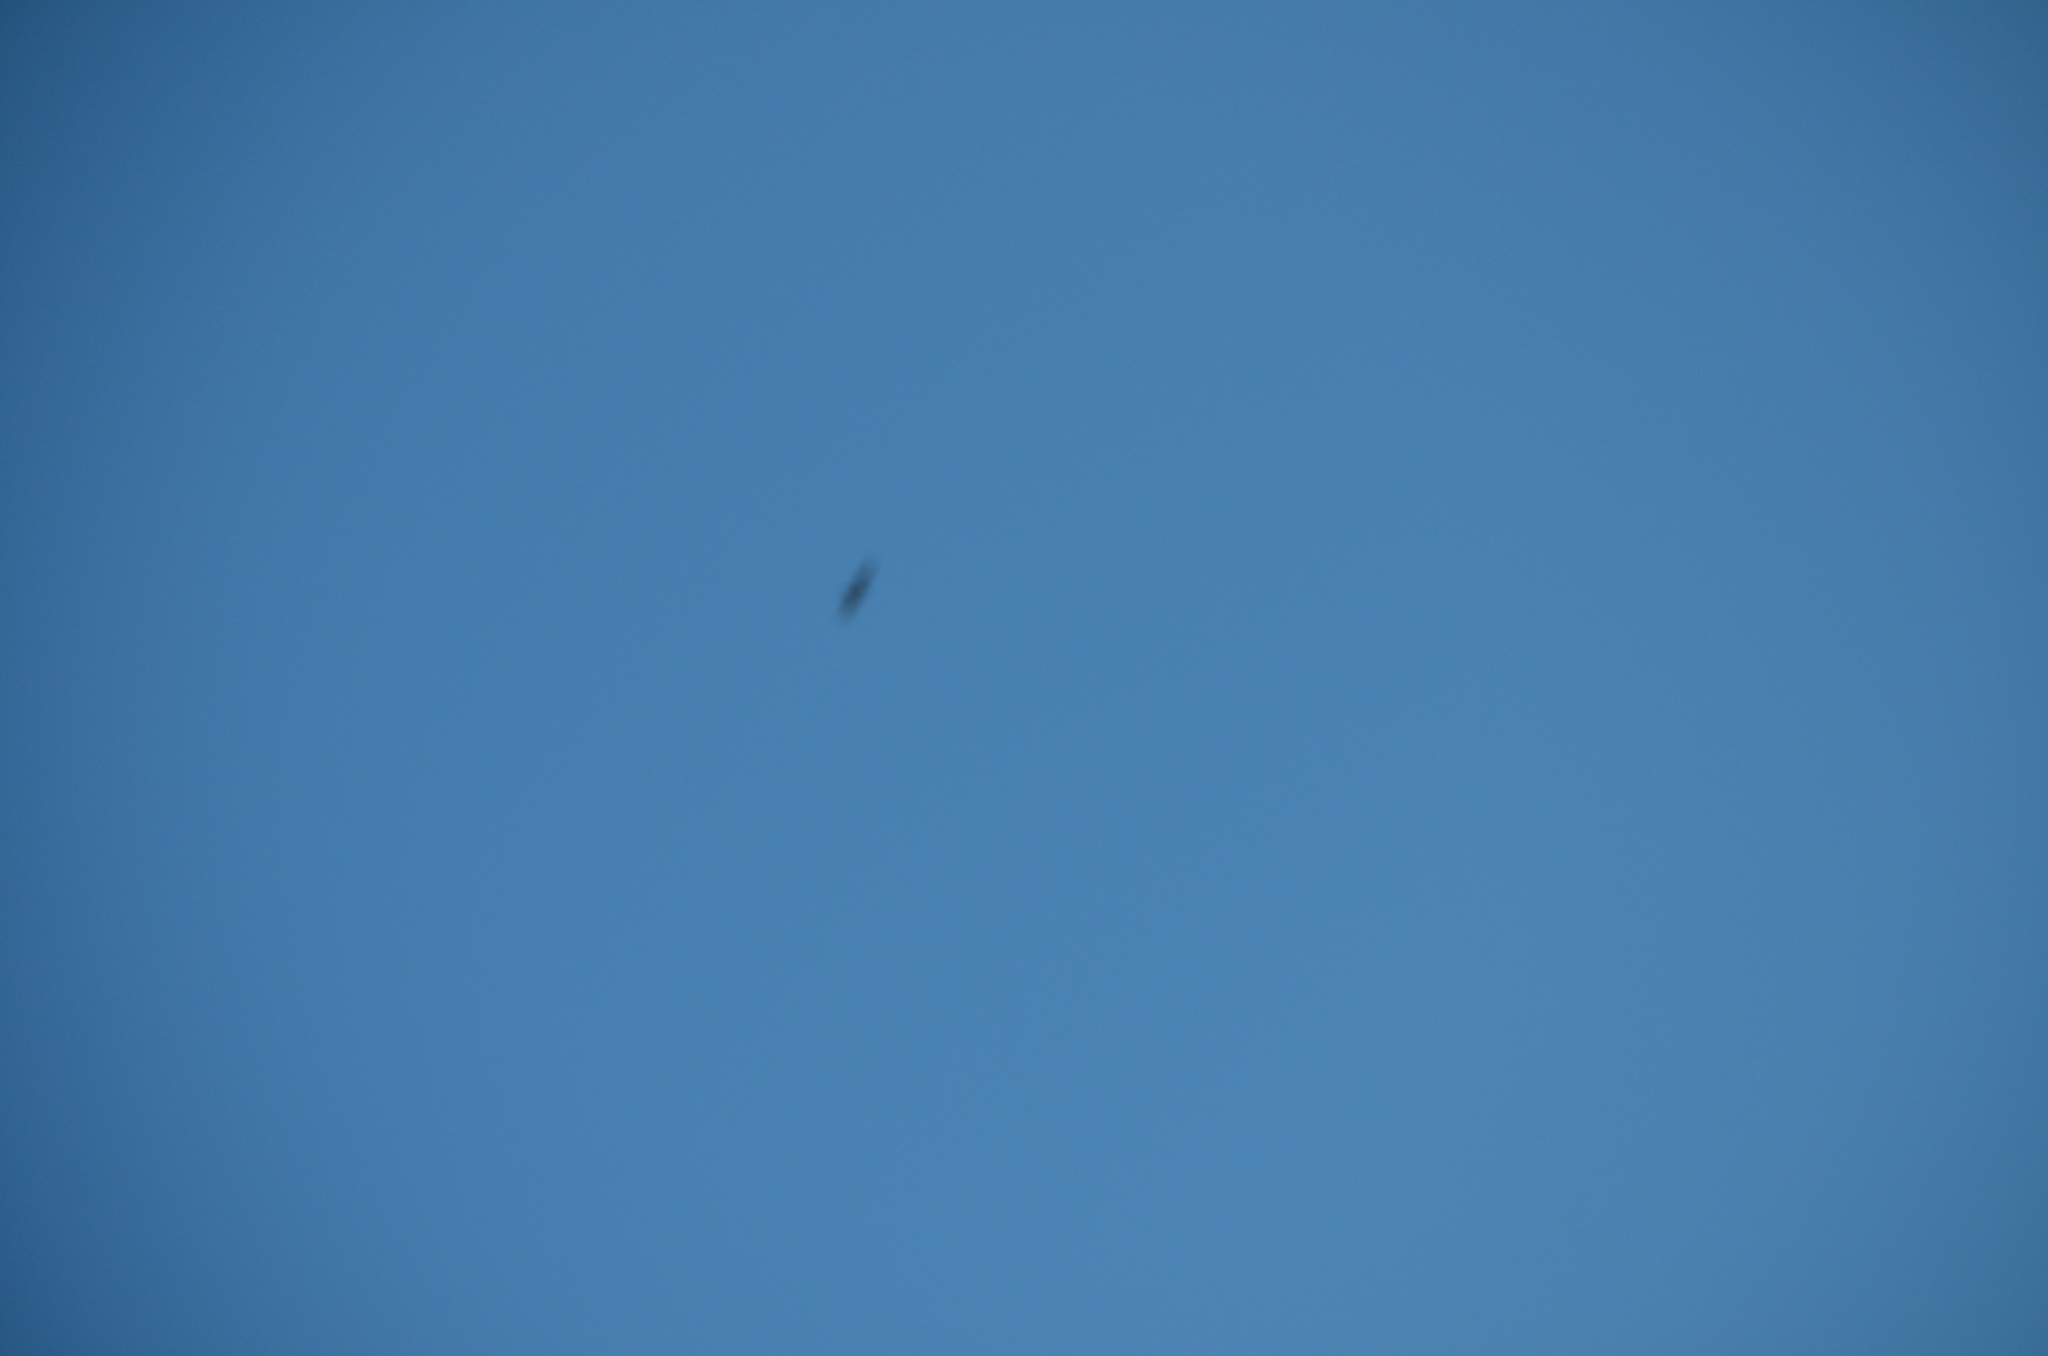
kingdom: Animalia
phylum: Chordata
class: Aves
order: Accipitriformes
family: Accipitridae
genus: Circus
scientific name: Circus cyaneus
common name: Hen harrier
